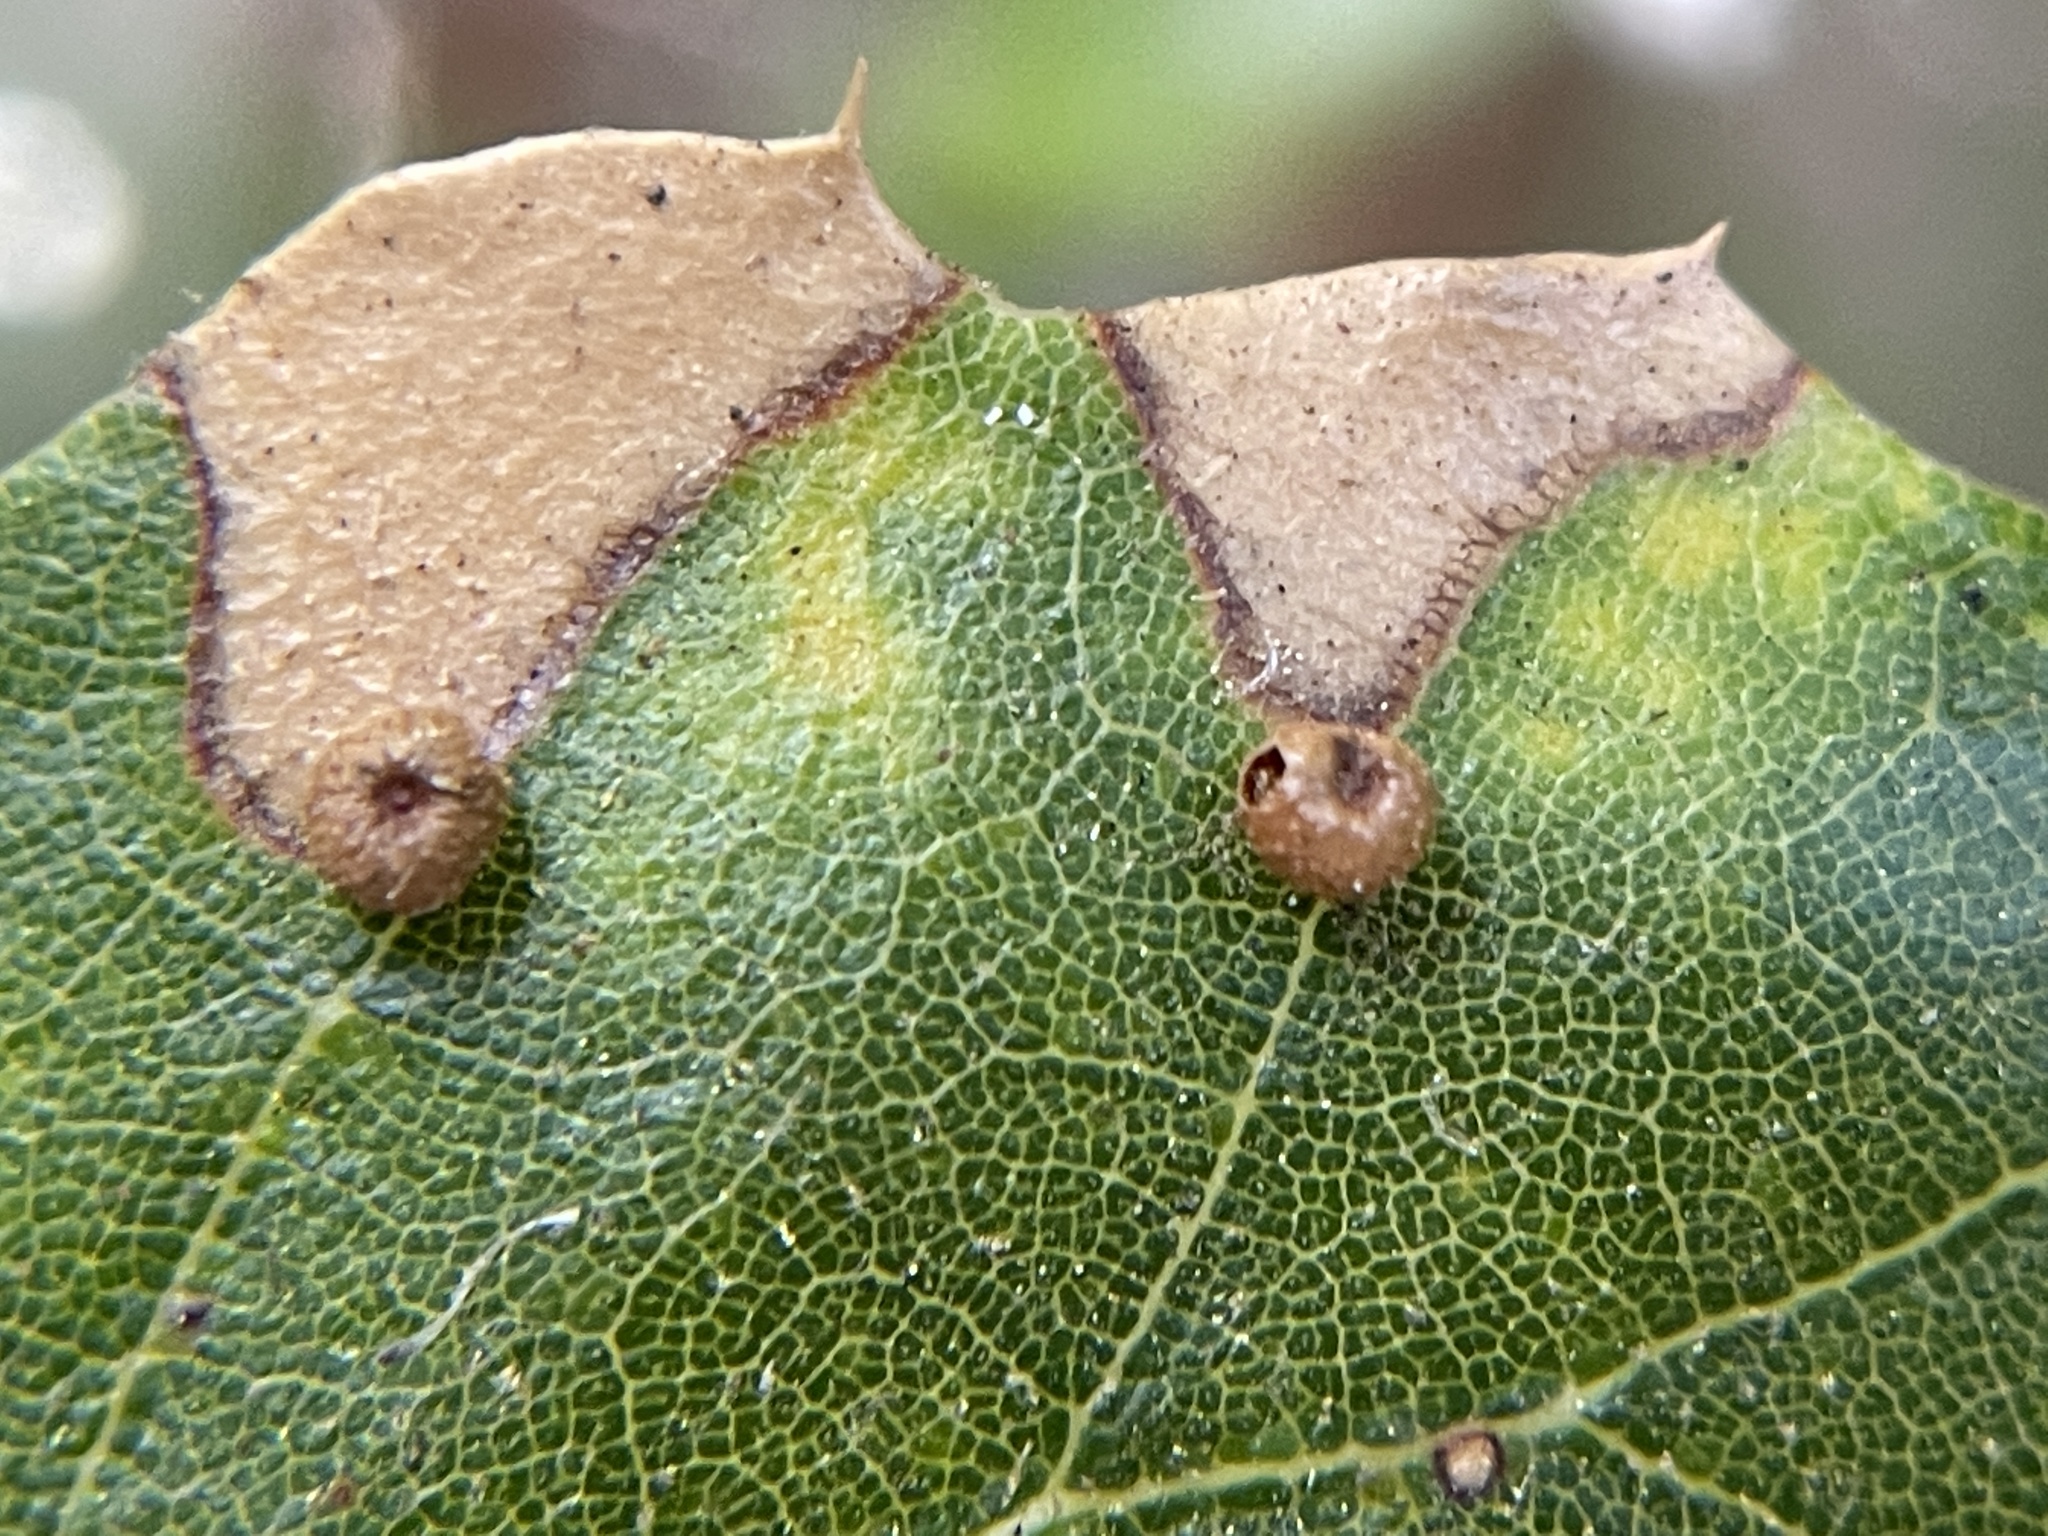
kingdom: Animalia
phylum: Arthropoda
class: Insecta
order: Hymenoptera
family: Cynipidae
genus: Dryocosmus
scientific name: Dryocosmus
